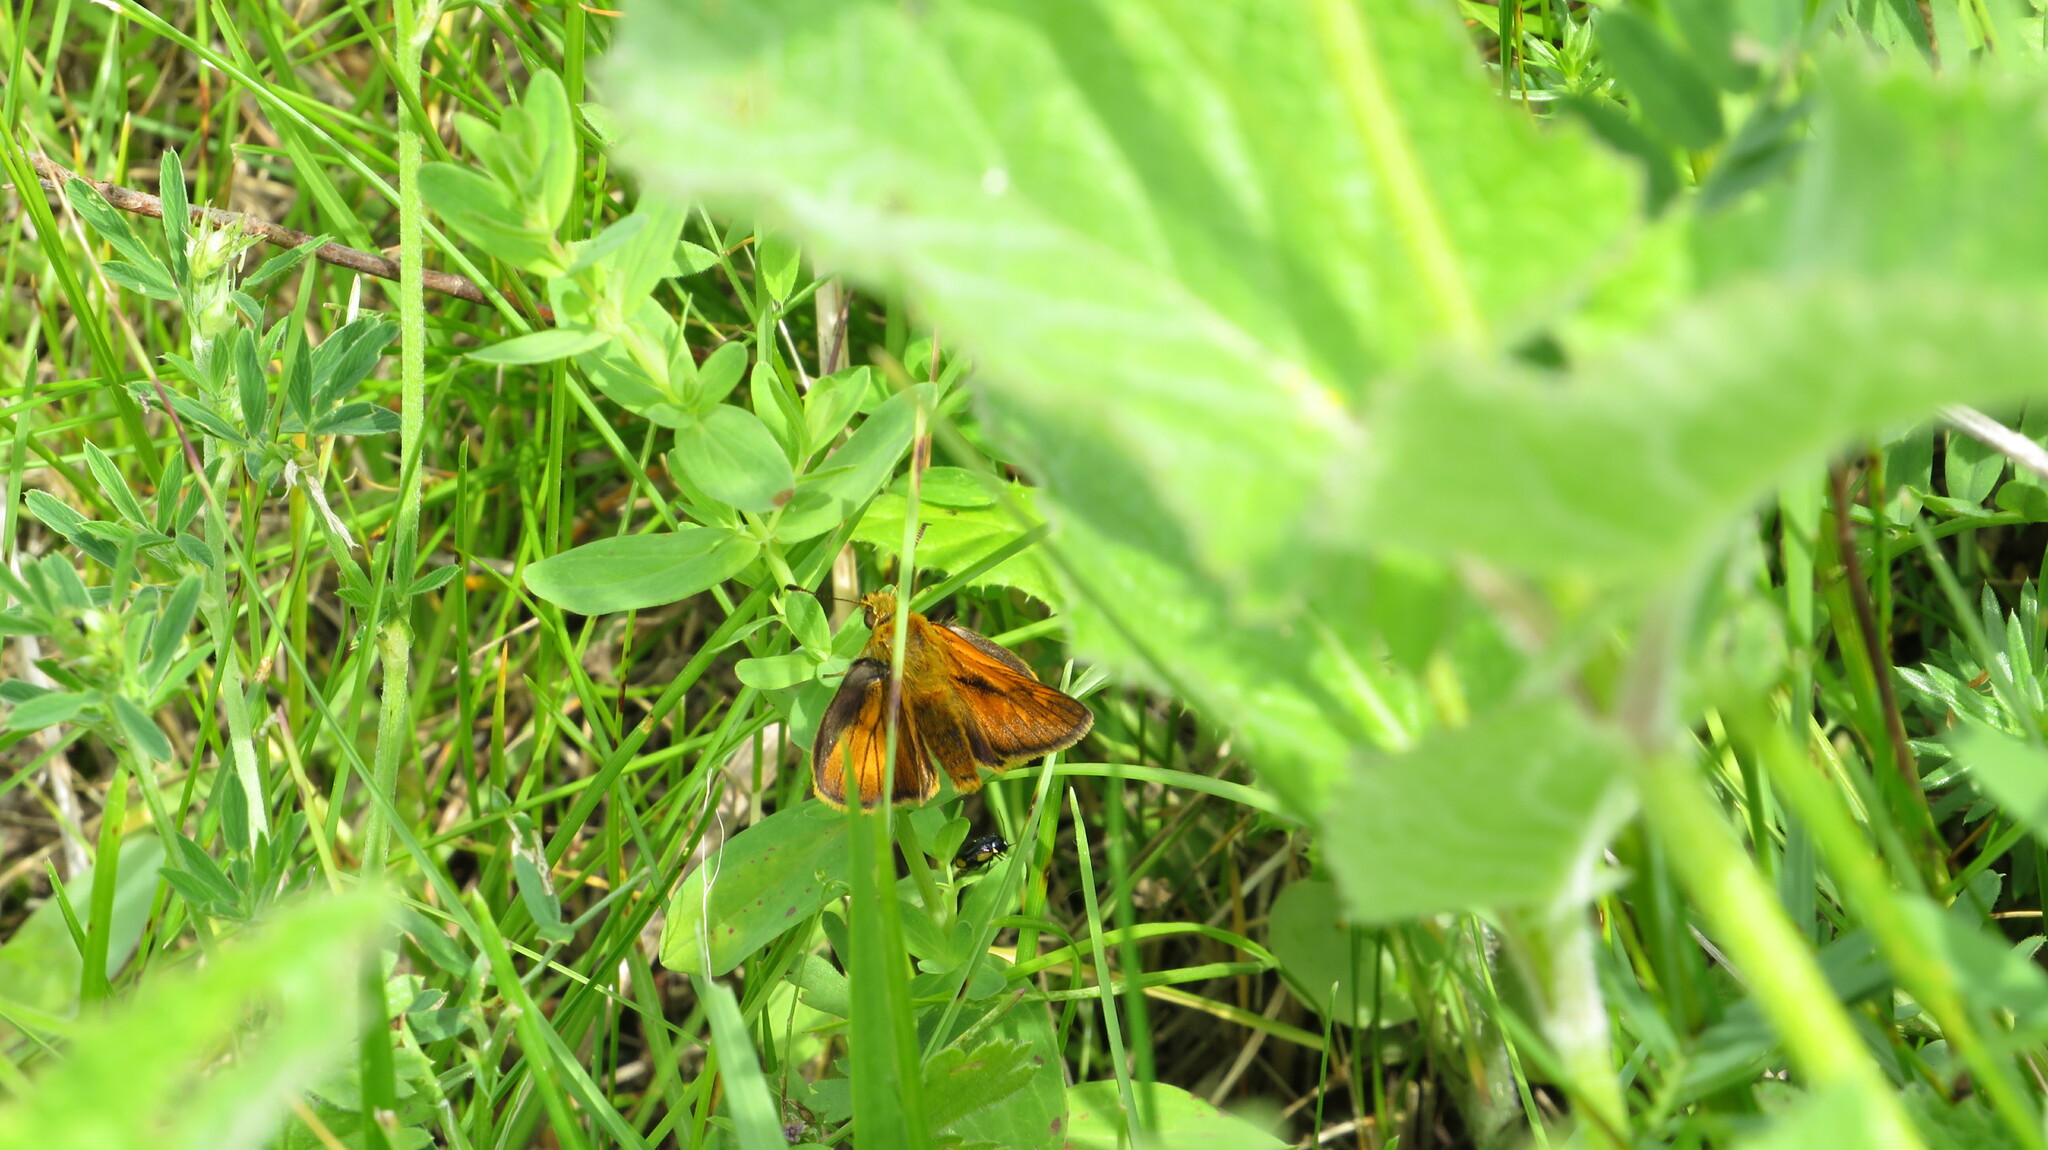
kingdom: Animalia
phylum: Arthropoda
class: Insecta
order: Lepidoptera
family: Hesperiidae
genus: Ochlodes
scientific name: Ochlodes venata
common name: Large skipper
